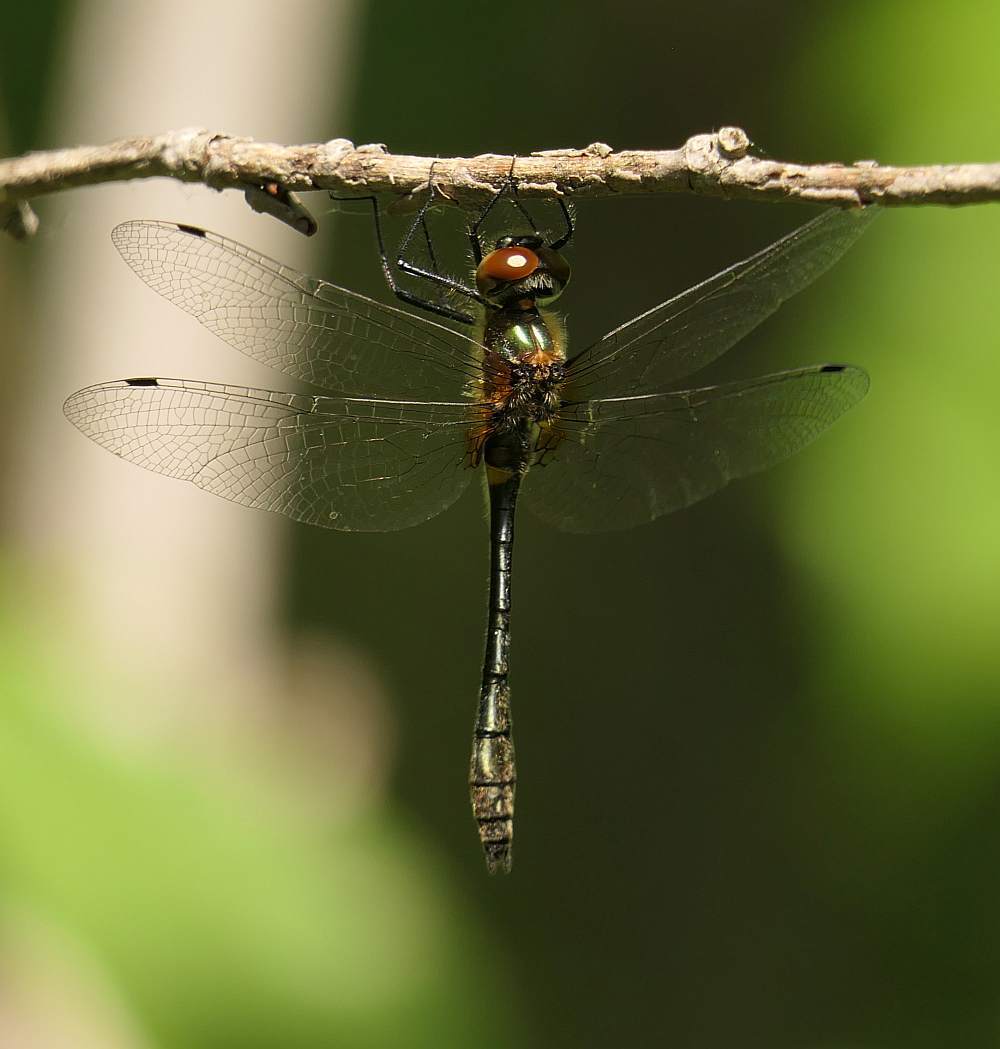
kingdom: Animalia
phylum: Arthropoda
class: Insecta
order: Odonata
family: Corduliidae
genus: Dorocordulia
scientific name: Dorocordulia libera
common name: Racket-tailed emerald
